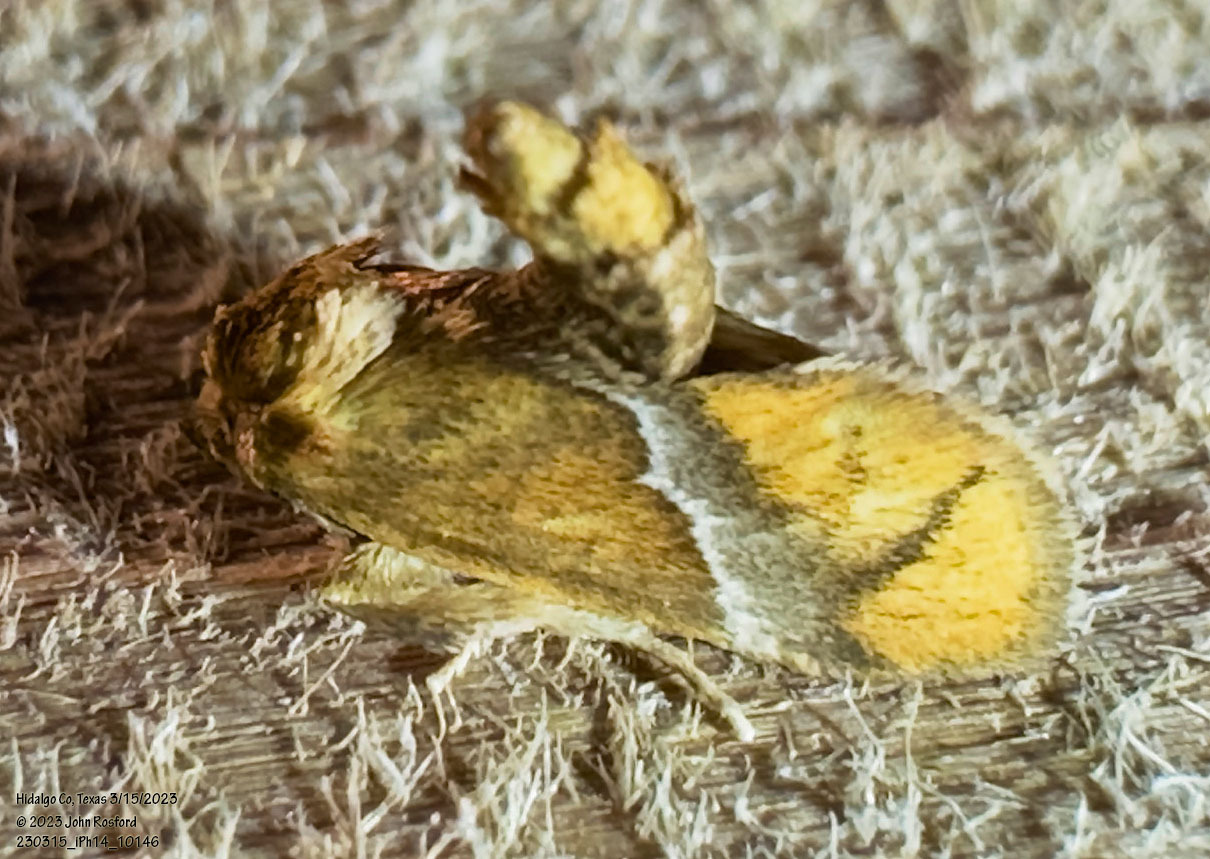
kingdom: Animalia
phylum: Arthropoda
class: Insecta
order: Lepidoptera
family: Limacodidae
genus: Lithacodes
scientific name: Lithacodes fasciola
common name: Yellow-shouldered slug moth
